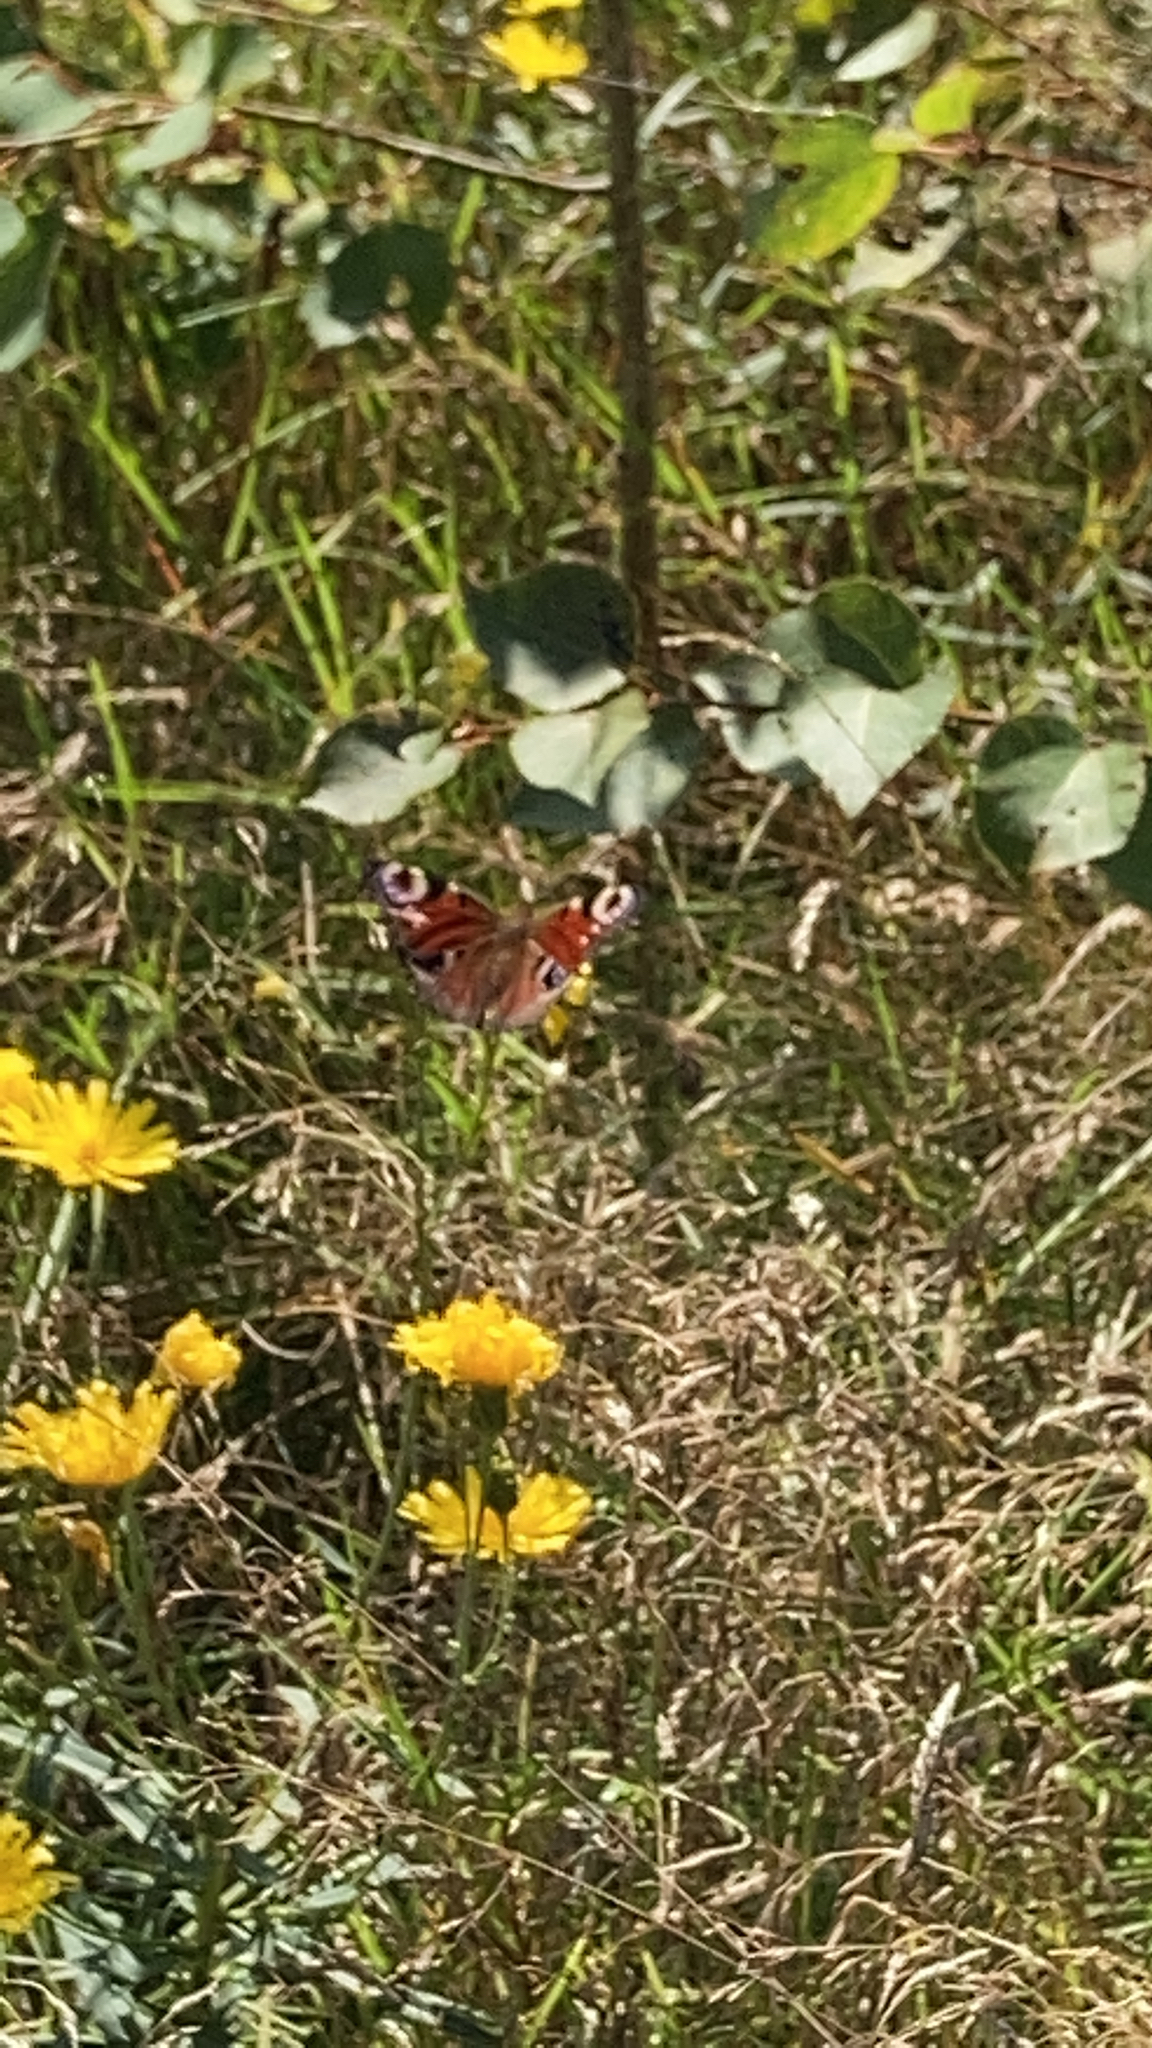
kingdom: Animalia
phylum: Arthropoda
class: Insecta
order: Lepidoptera
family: Nymphalidae
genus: Aglais
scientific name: Aglais io
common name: Peacock
